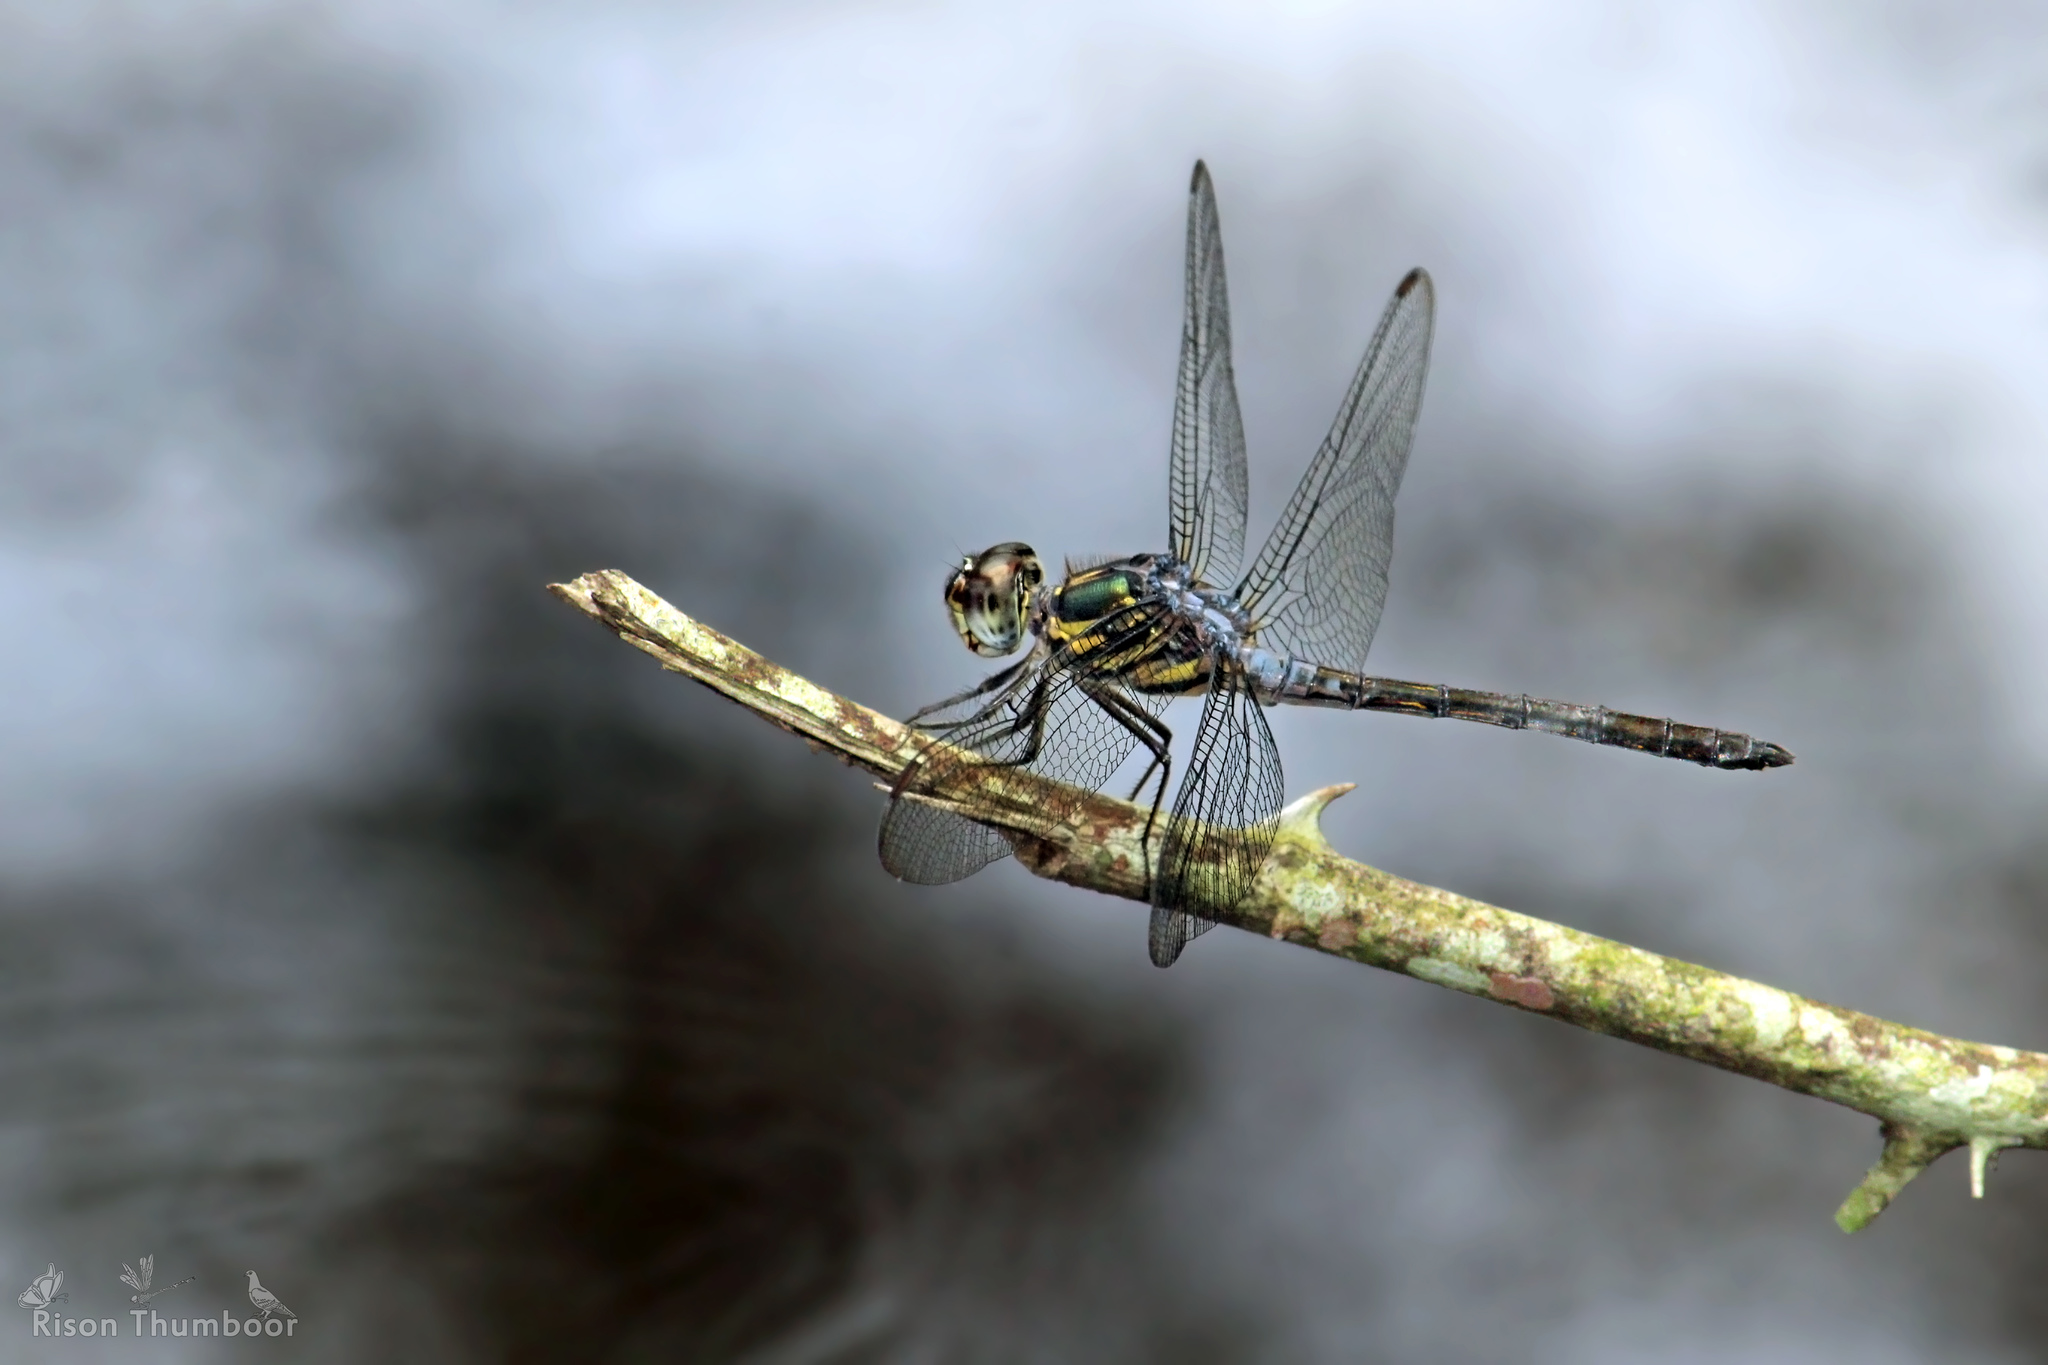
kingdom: Animalia
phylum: Arthropoda
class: Insecta
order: Odonata
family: Libellulidae
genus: Cratilla
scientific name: Cratilla lineata
